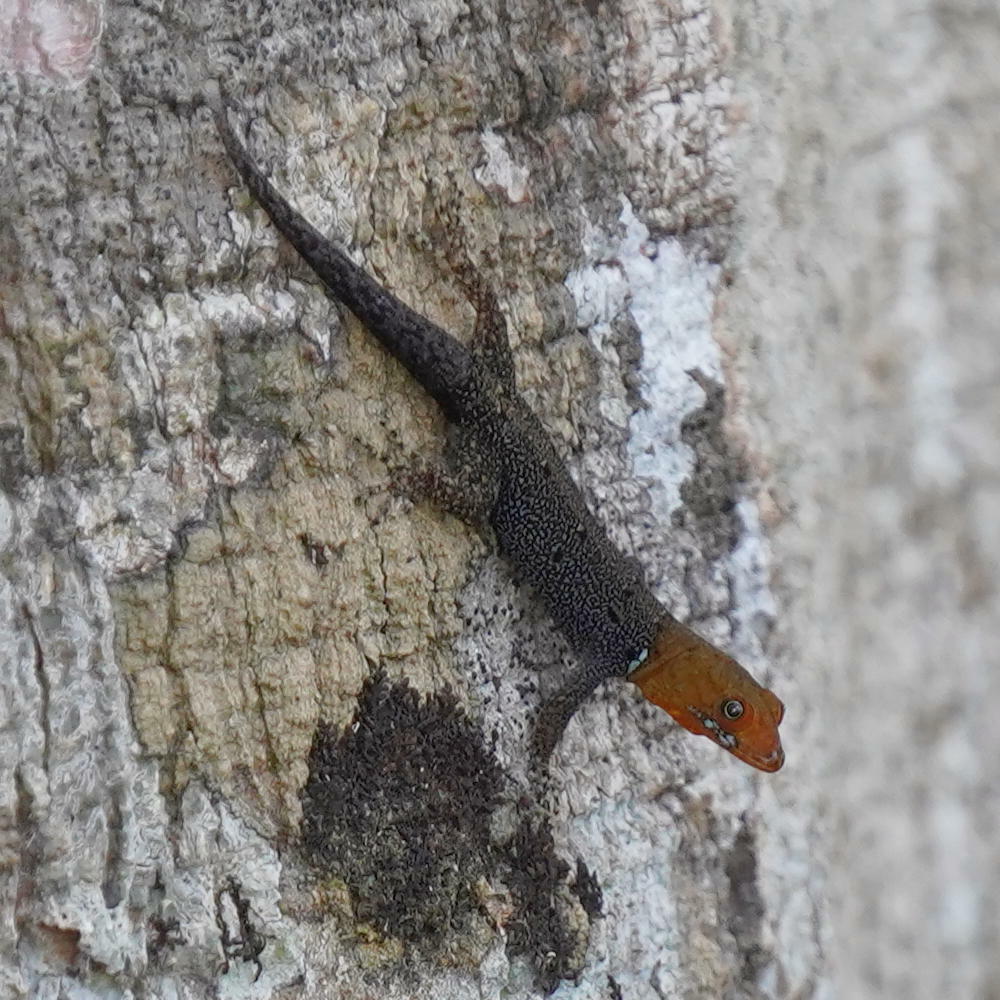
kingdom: Animalia
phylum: Chordata
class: Squamata
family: Sphaerodactylidae
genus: Gonatodes
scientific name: Gonatodes albogularis
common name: Yellow-headed gecko
